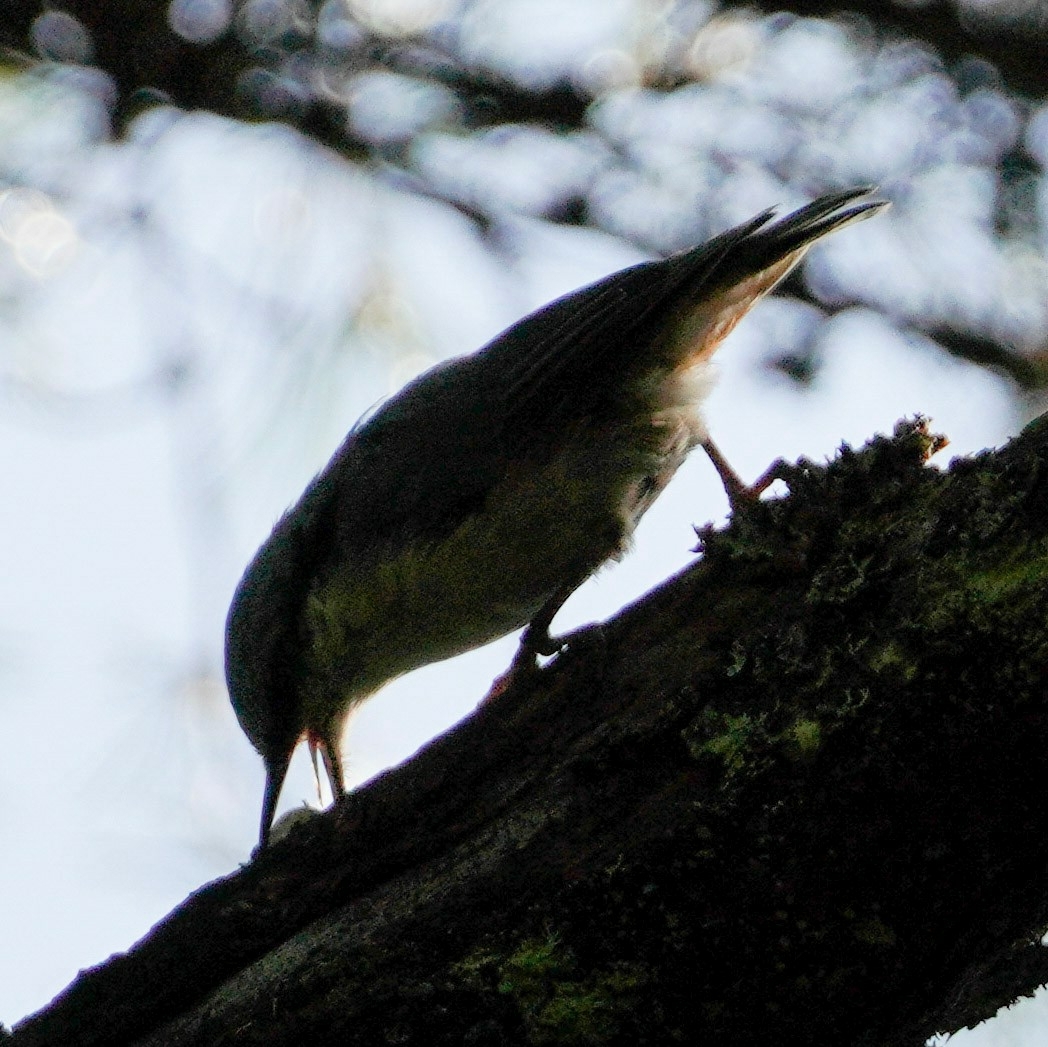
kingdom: Animalia
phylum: Chordata
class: Aves
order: Passeriformes
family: Sittidae
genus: Sitta
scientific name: Sitta europaea
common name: Eurasian nuthatch
